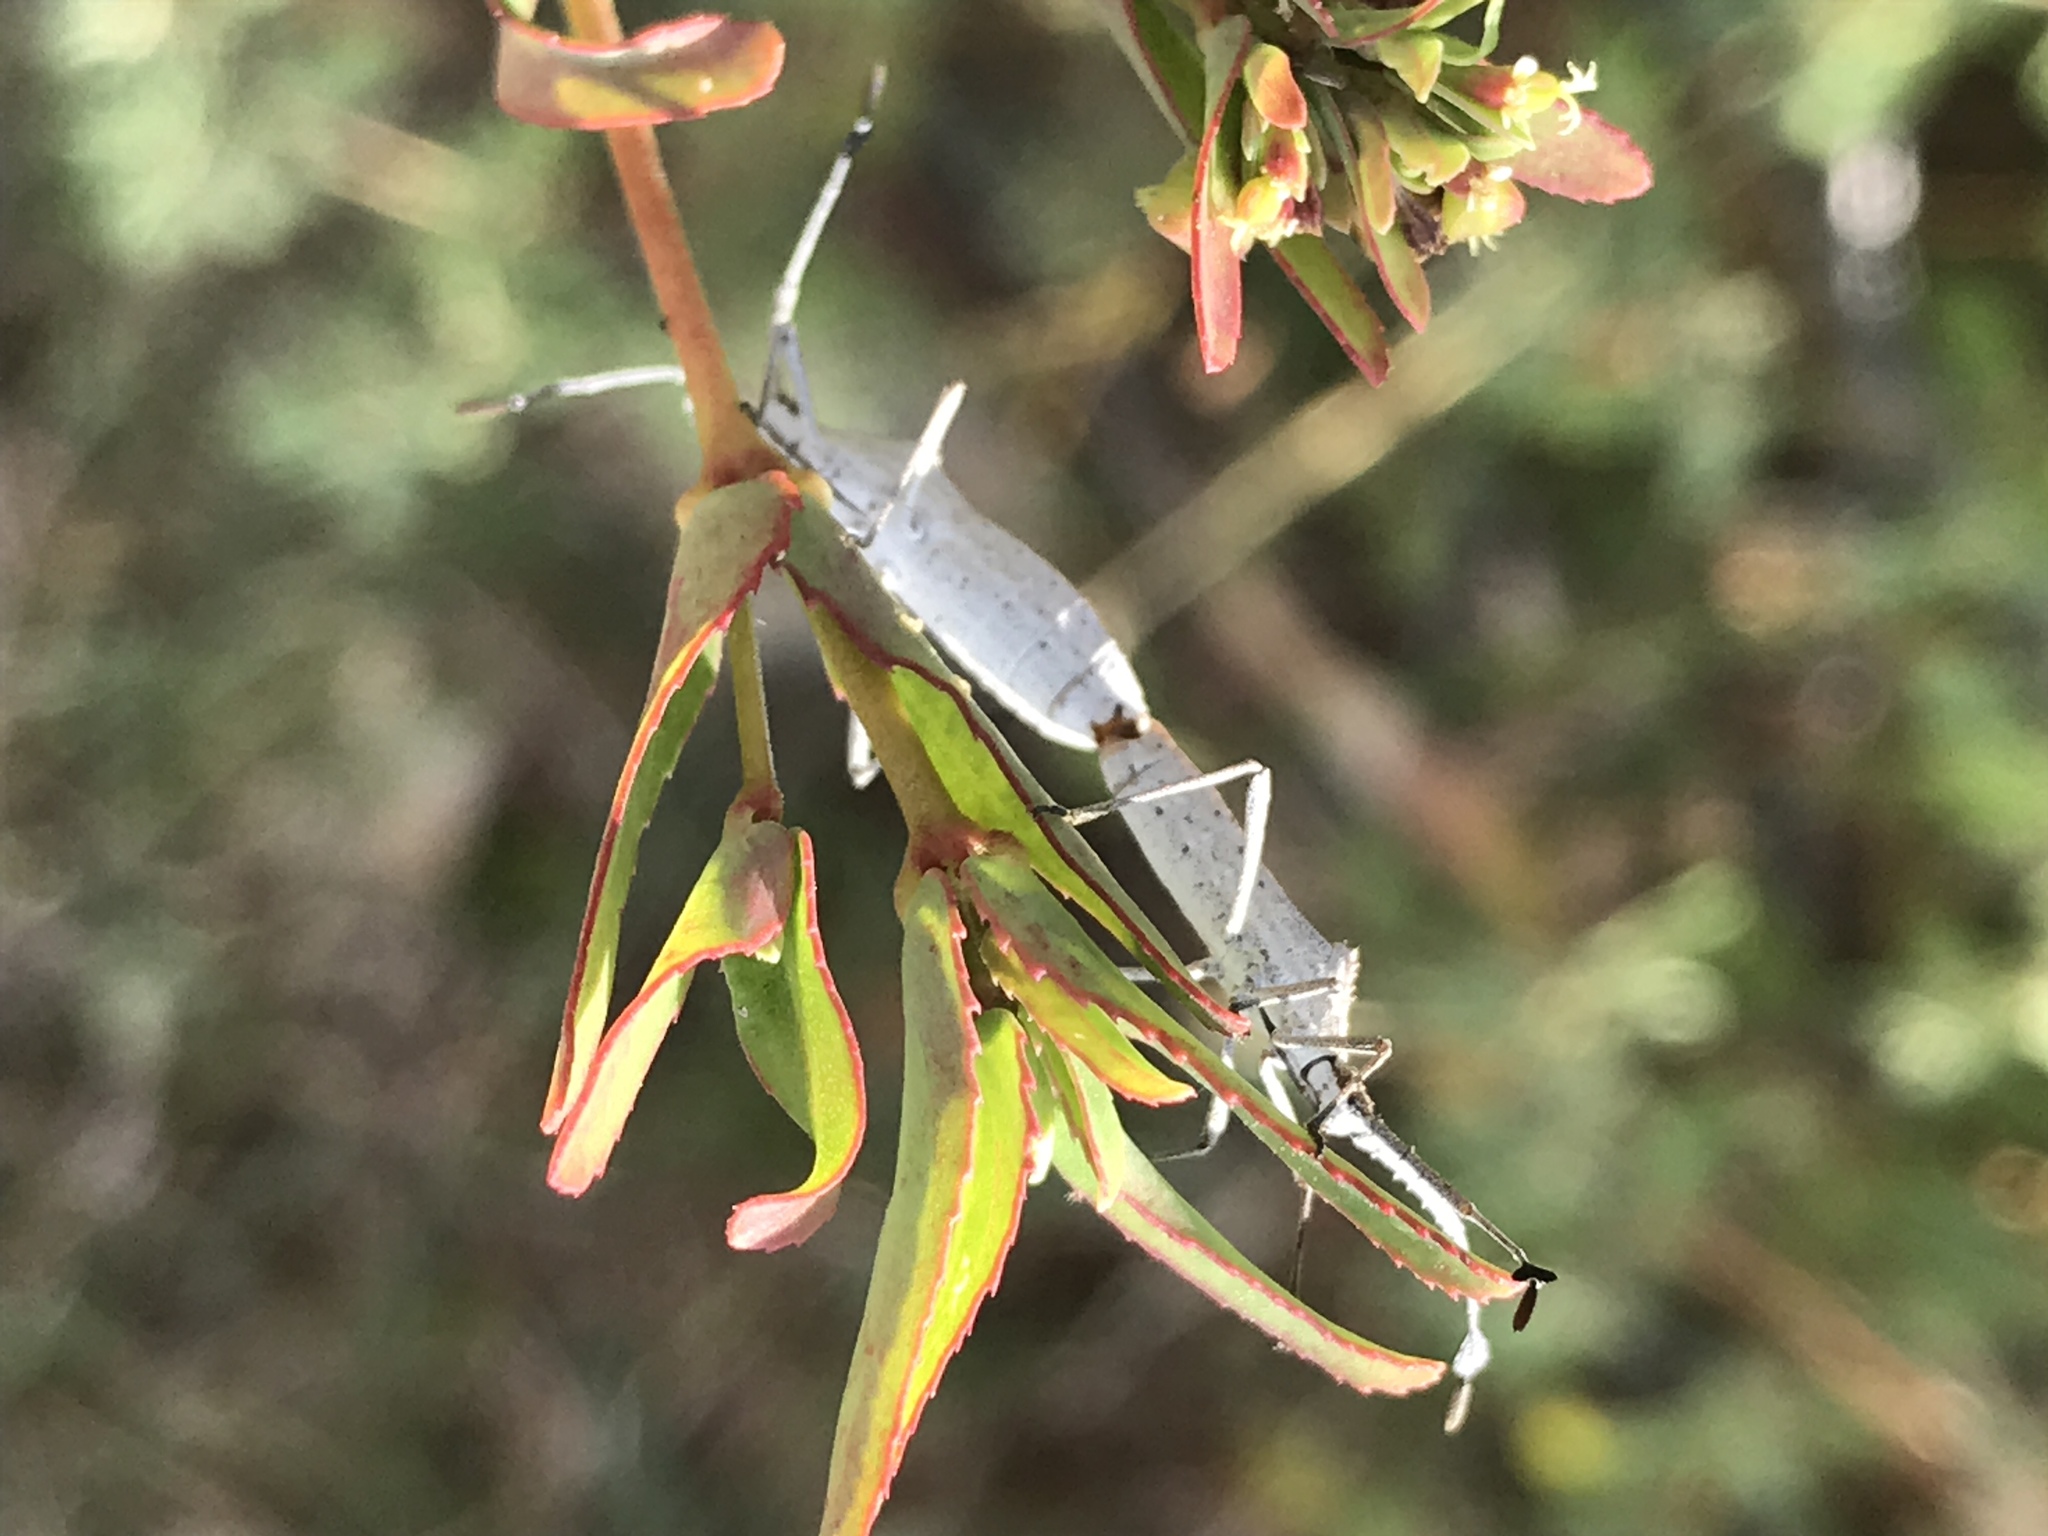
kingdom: Animalia
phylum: Arthropoda
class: Insecta
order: Hemiptera
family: Coreidae
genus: Chariesterus
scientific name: Chariesterus antennator
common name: Flat horned coreid
